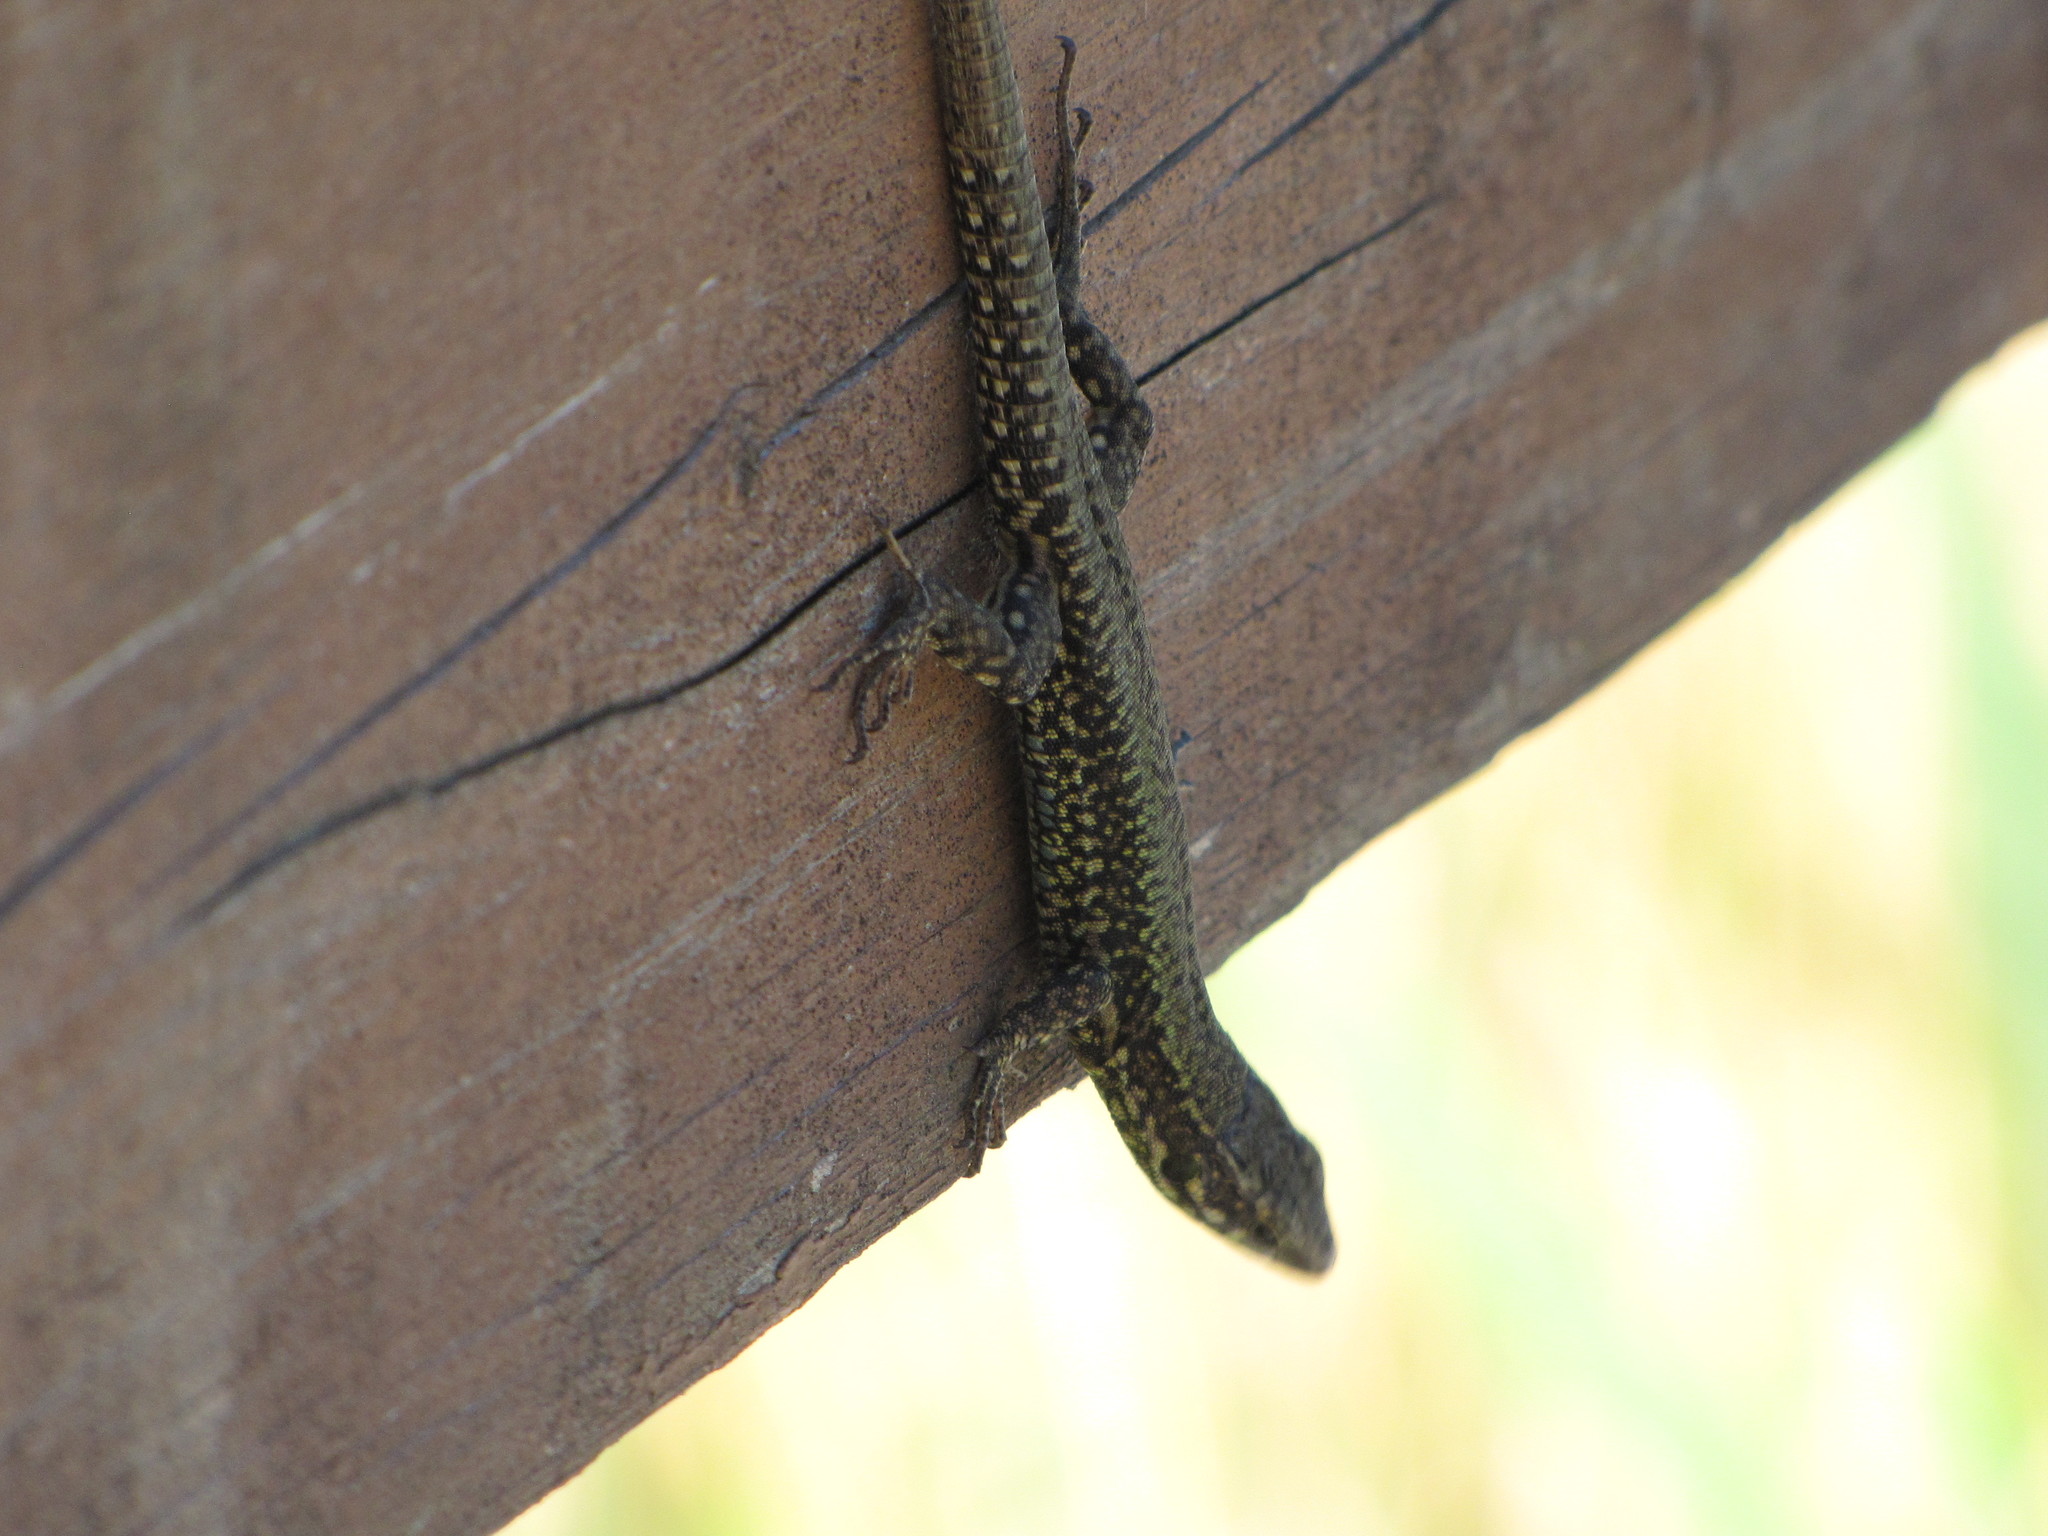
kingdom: Animalia
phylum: Chordata
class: Squamata
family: Lacertidae
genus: Podarcis
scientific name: Podarcis muralis
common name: Common wall lizard
